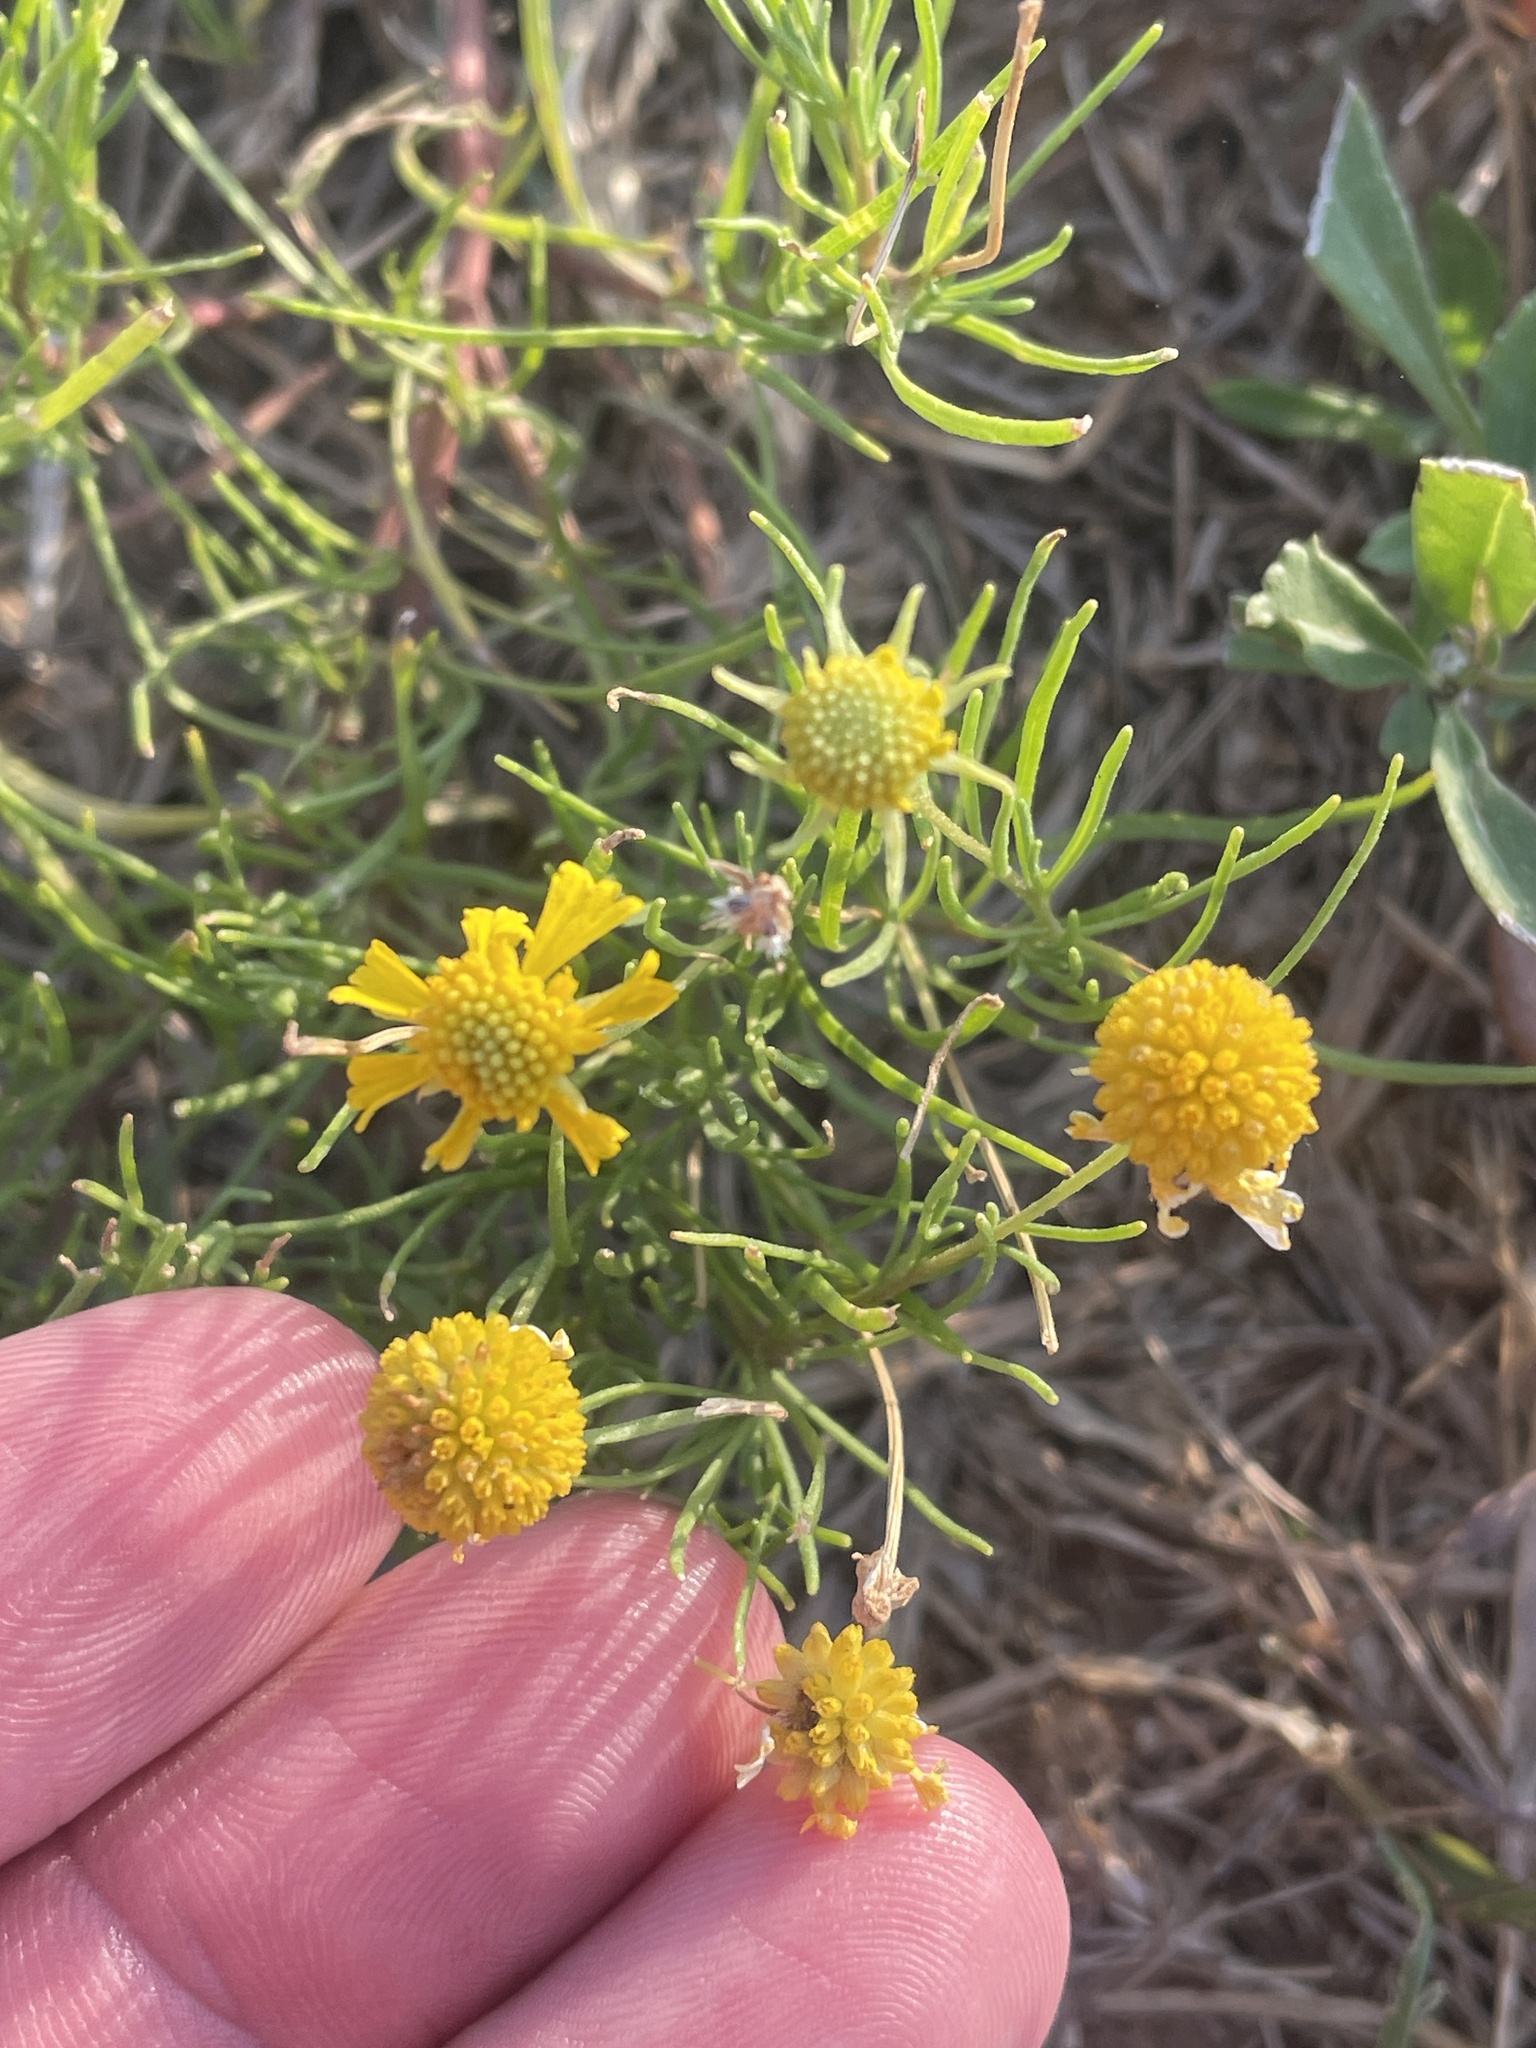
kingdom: Plantae
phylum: Tracheophyta
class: Magnoliopsida
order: Asterales
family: Asteraceae
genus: Helenium
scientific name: Helenium amarum
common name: Bitter sneezeweed
